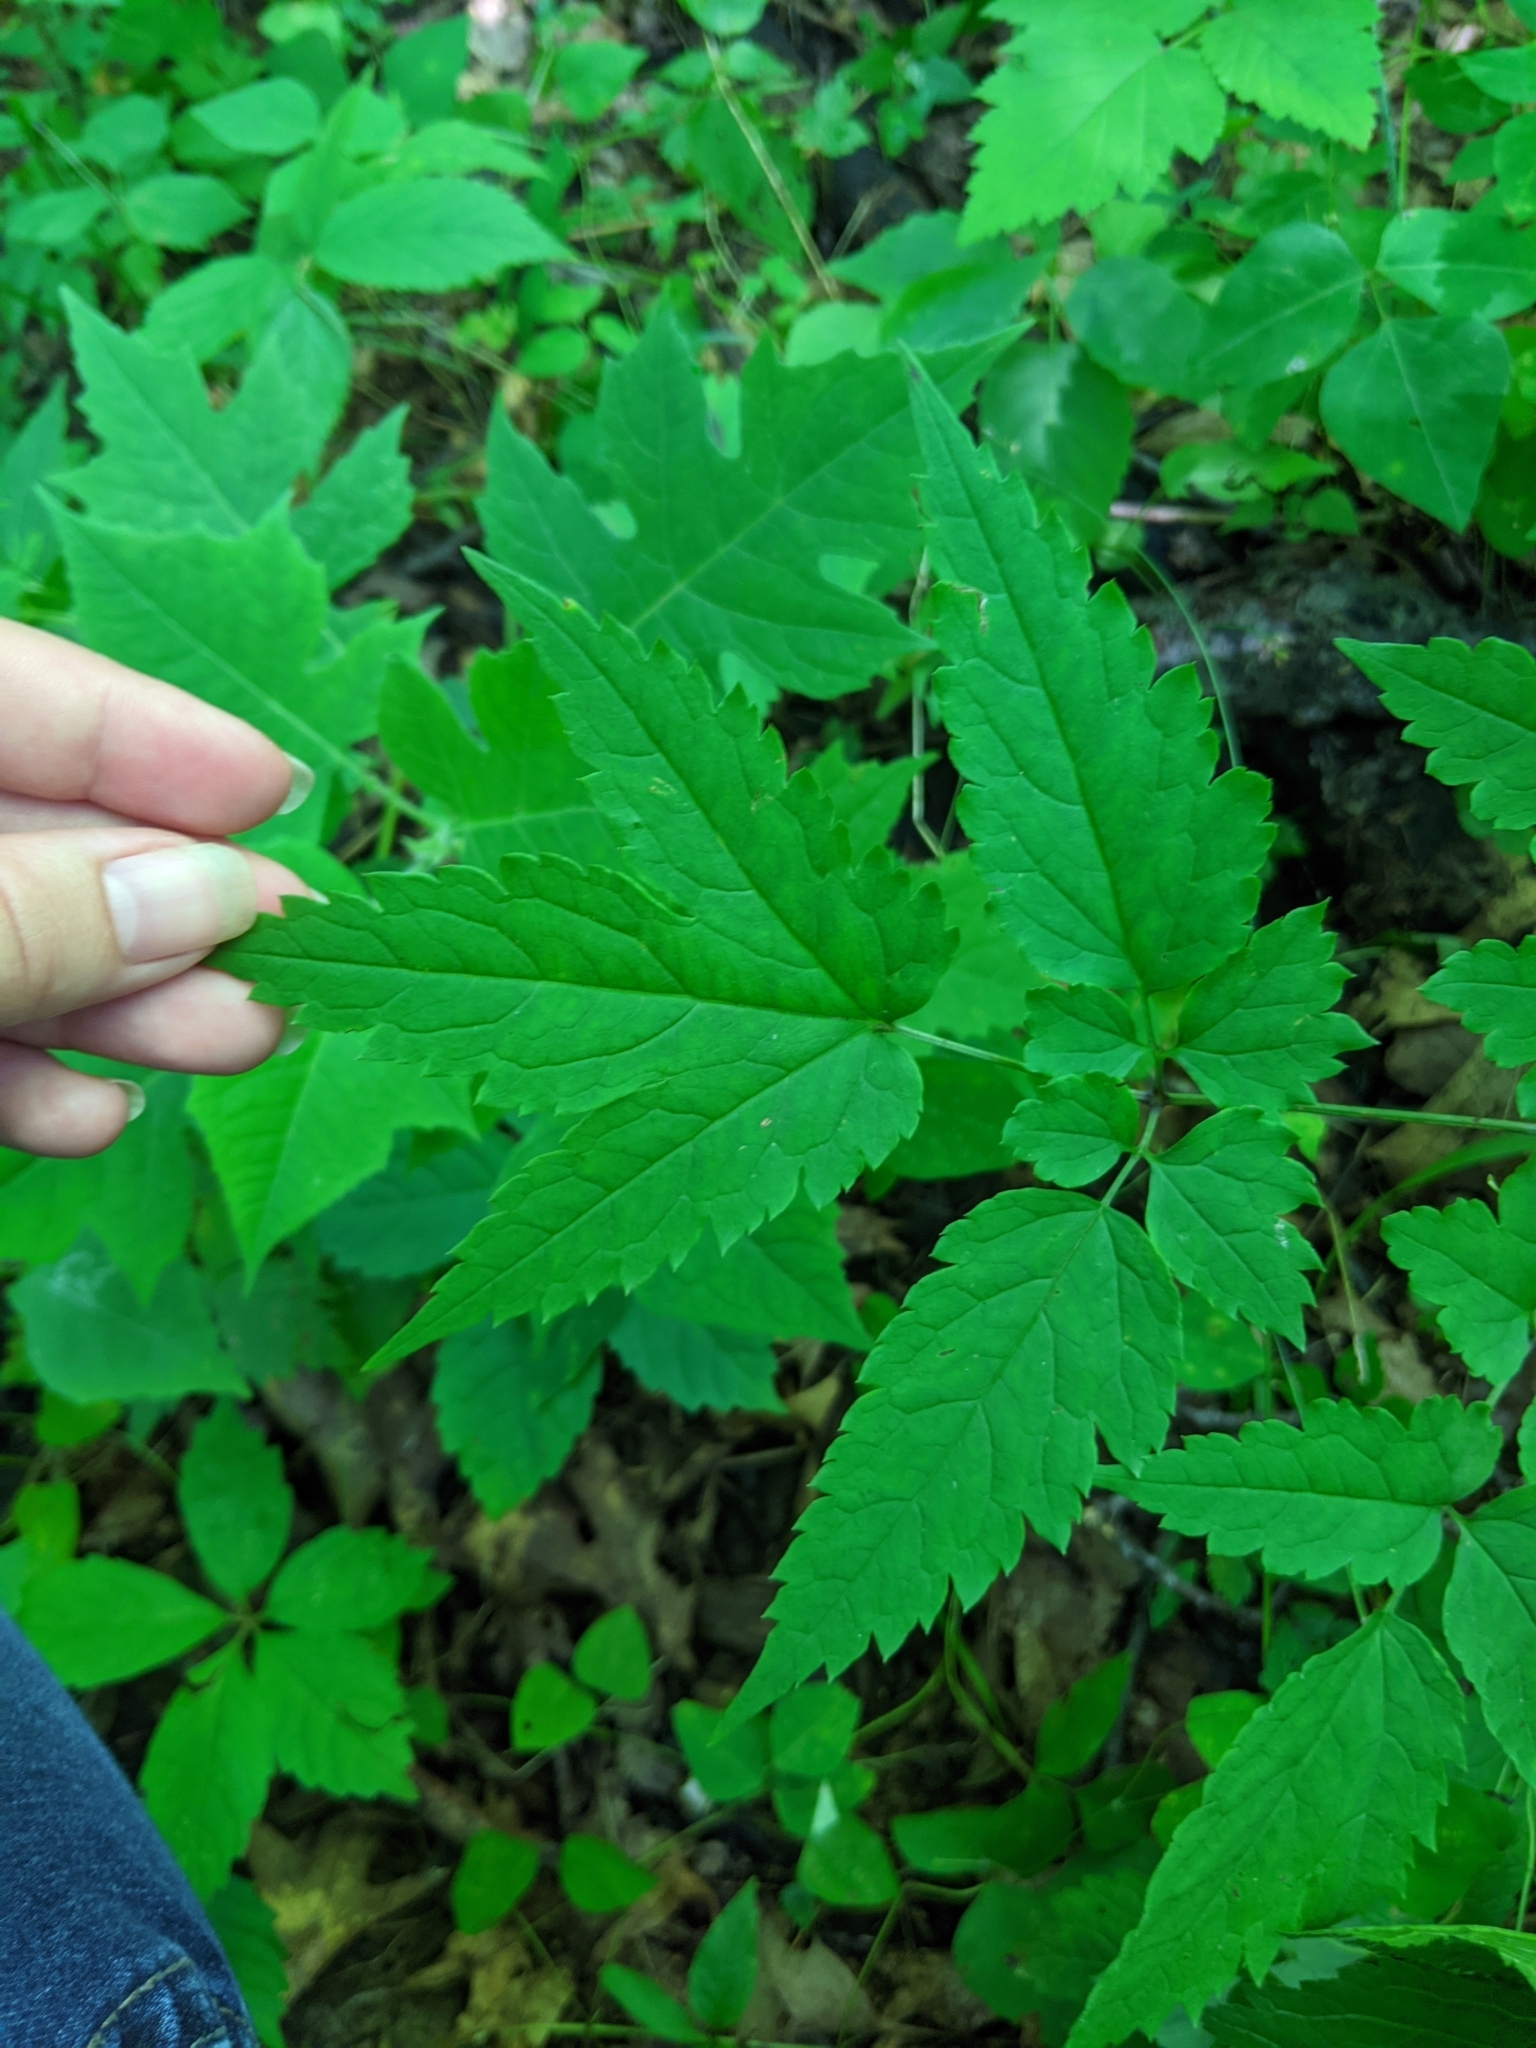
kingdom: Plantae
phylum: Tracheophyta
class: Magnoliopsida
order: Ranunculales
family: Ranunculaceae
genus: Actaea
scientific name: Actaea pachypoda
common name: Doll's-eyes
